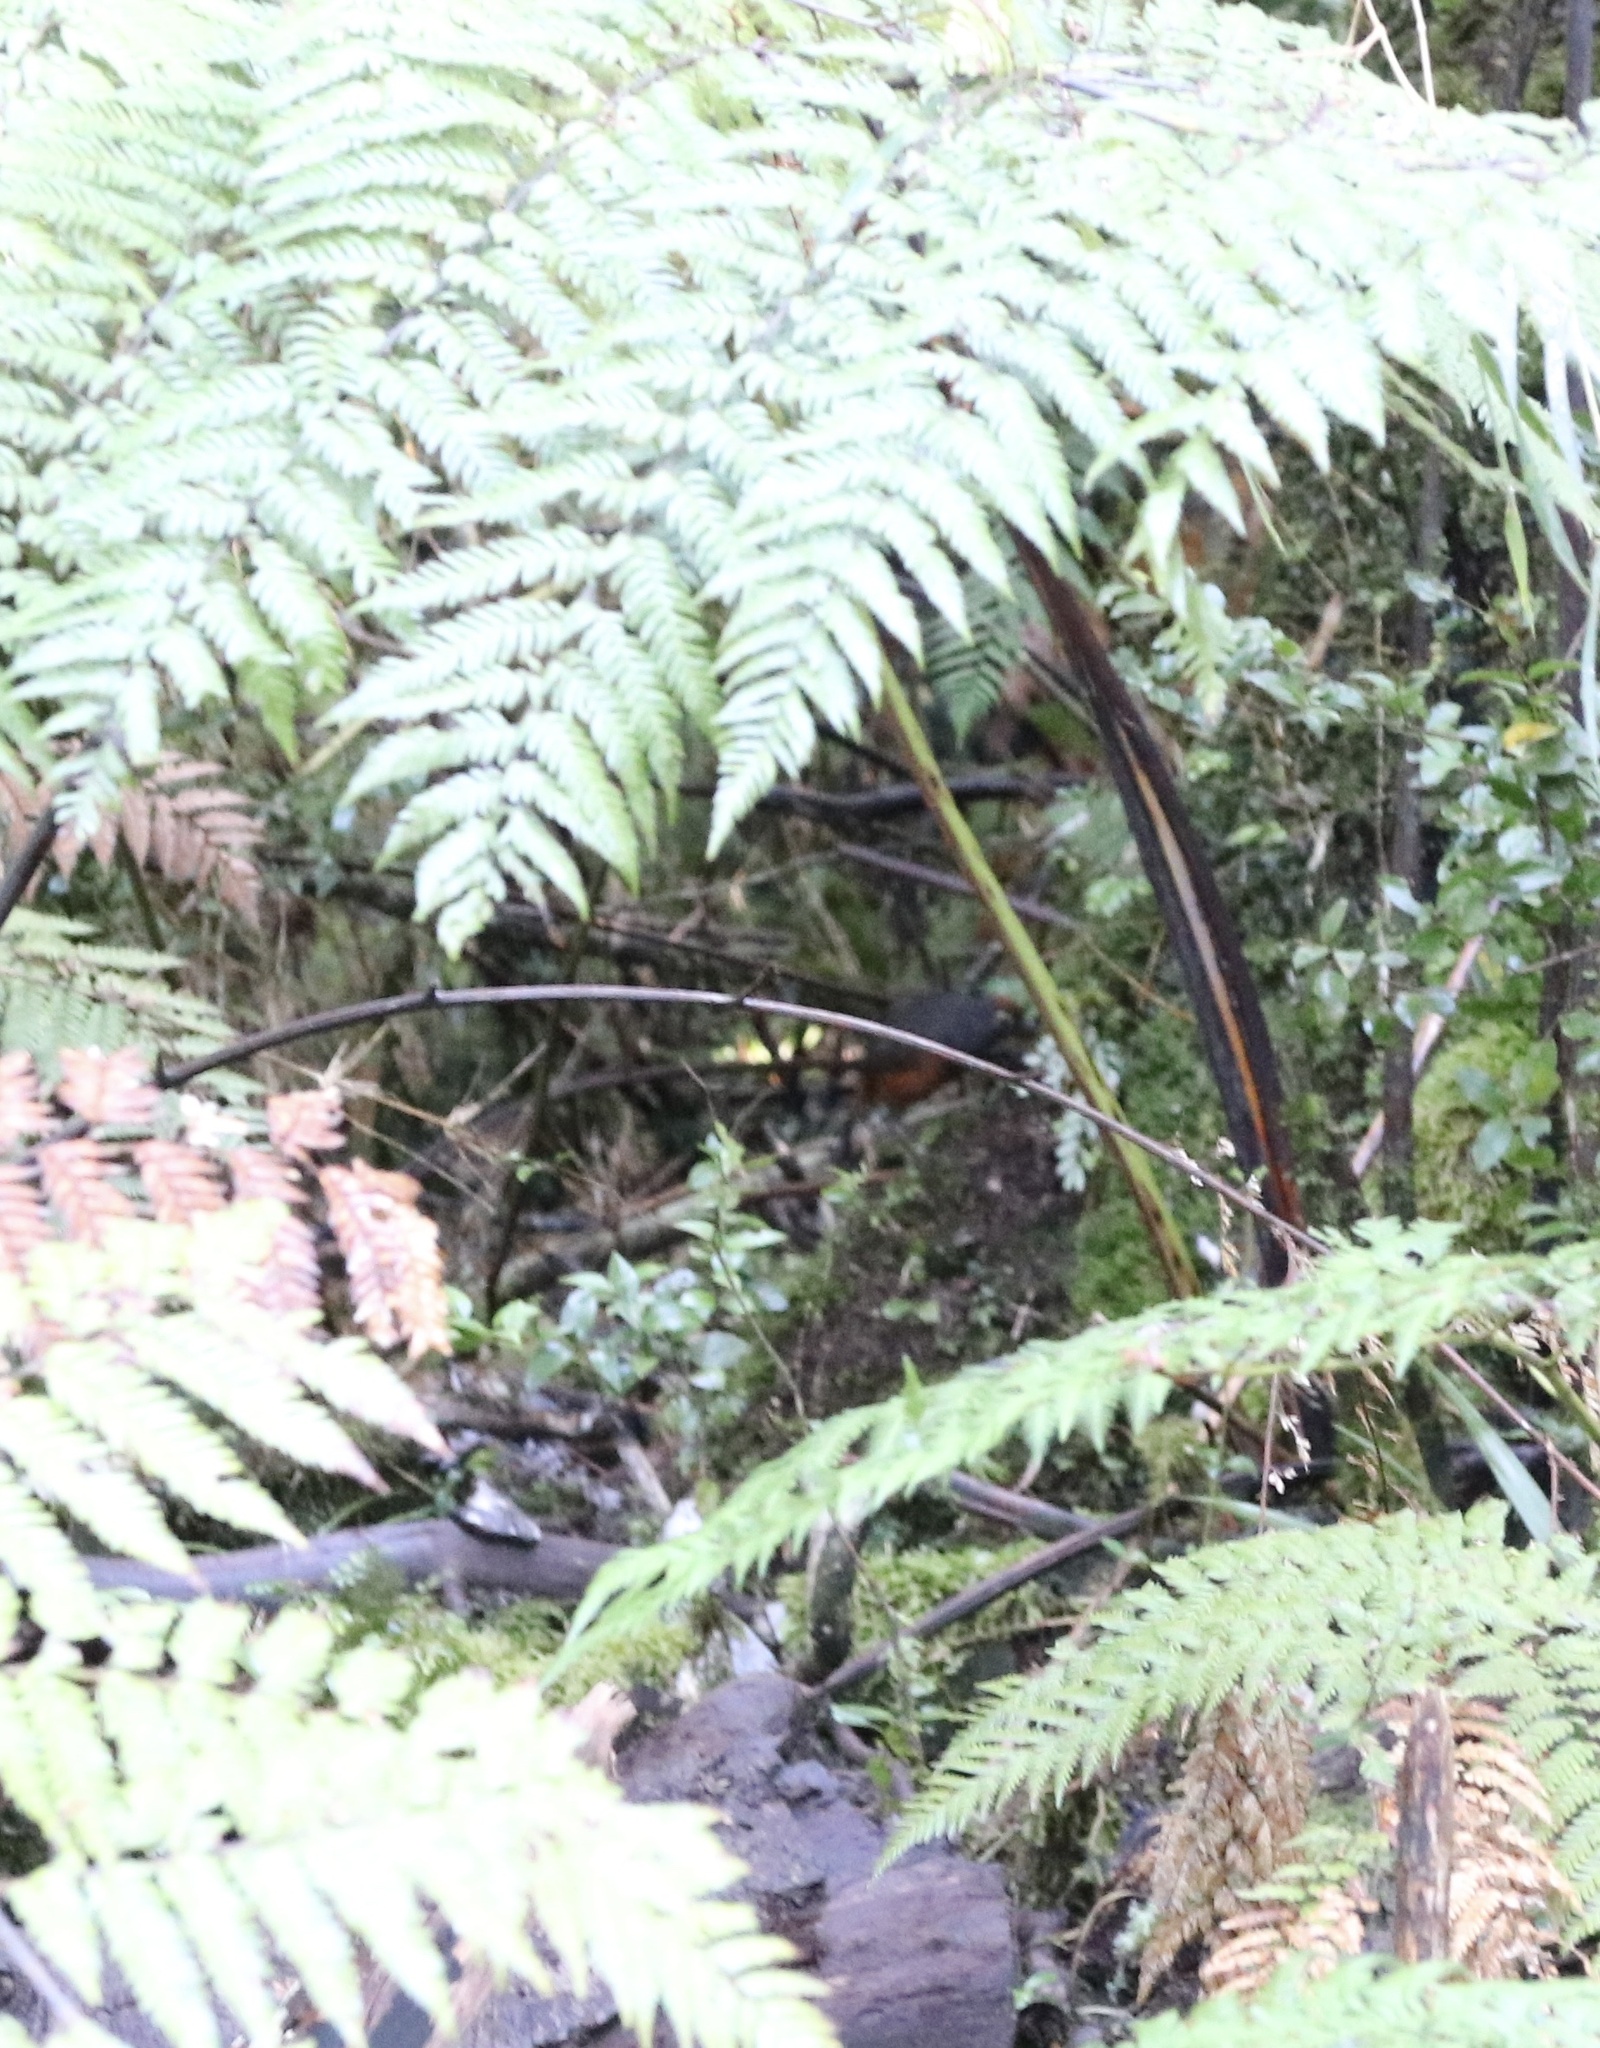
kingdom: Animalia
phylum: Chordata
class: Aves
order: Passeriformes
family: Rhinocryptidae
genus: Pteroptochos
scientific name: Pteroptochos tarnii
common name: Black-throated huet-huet
